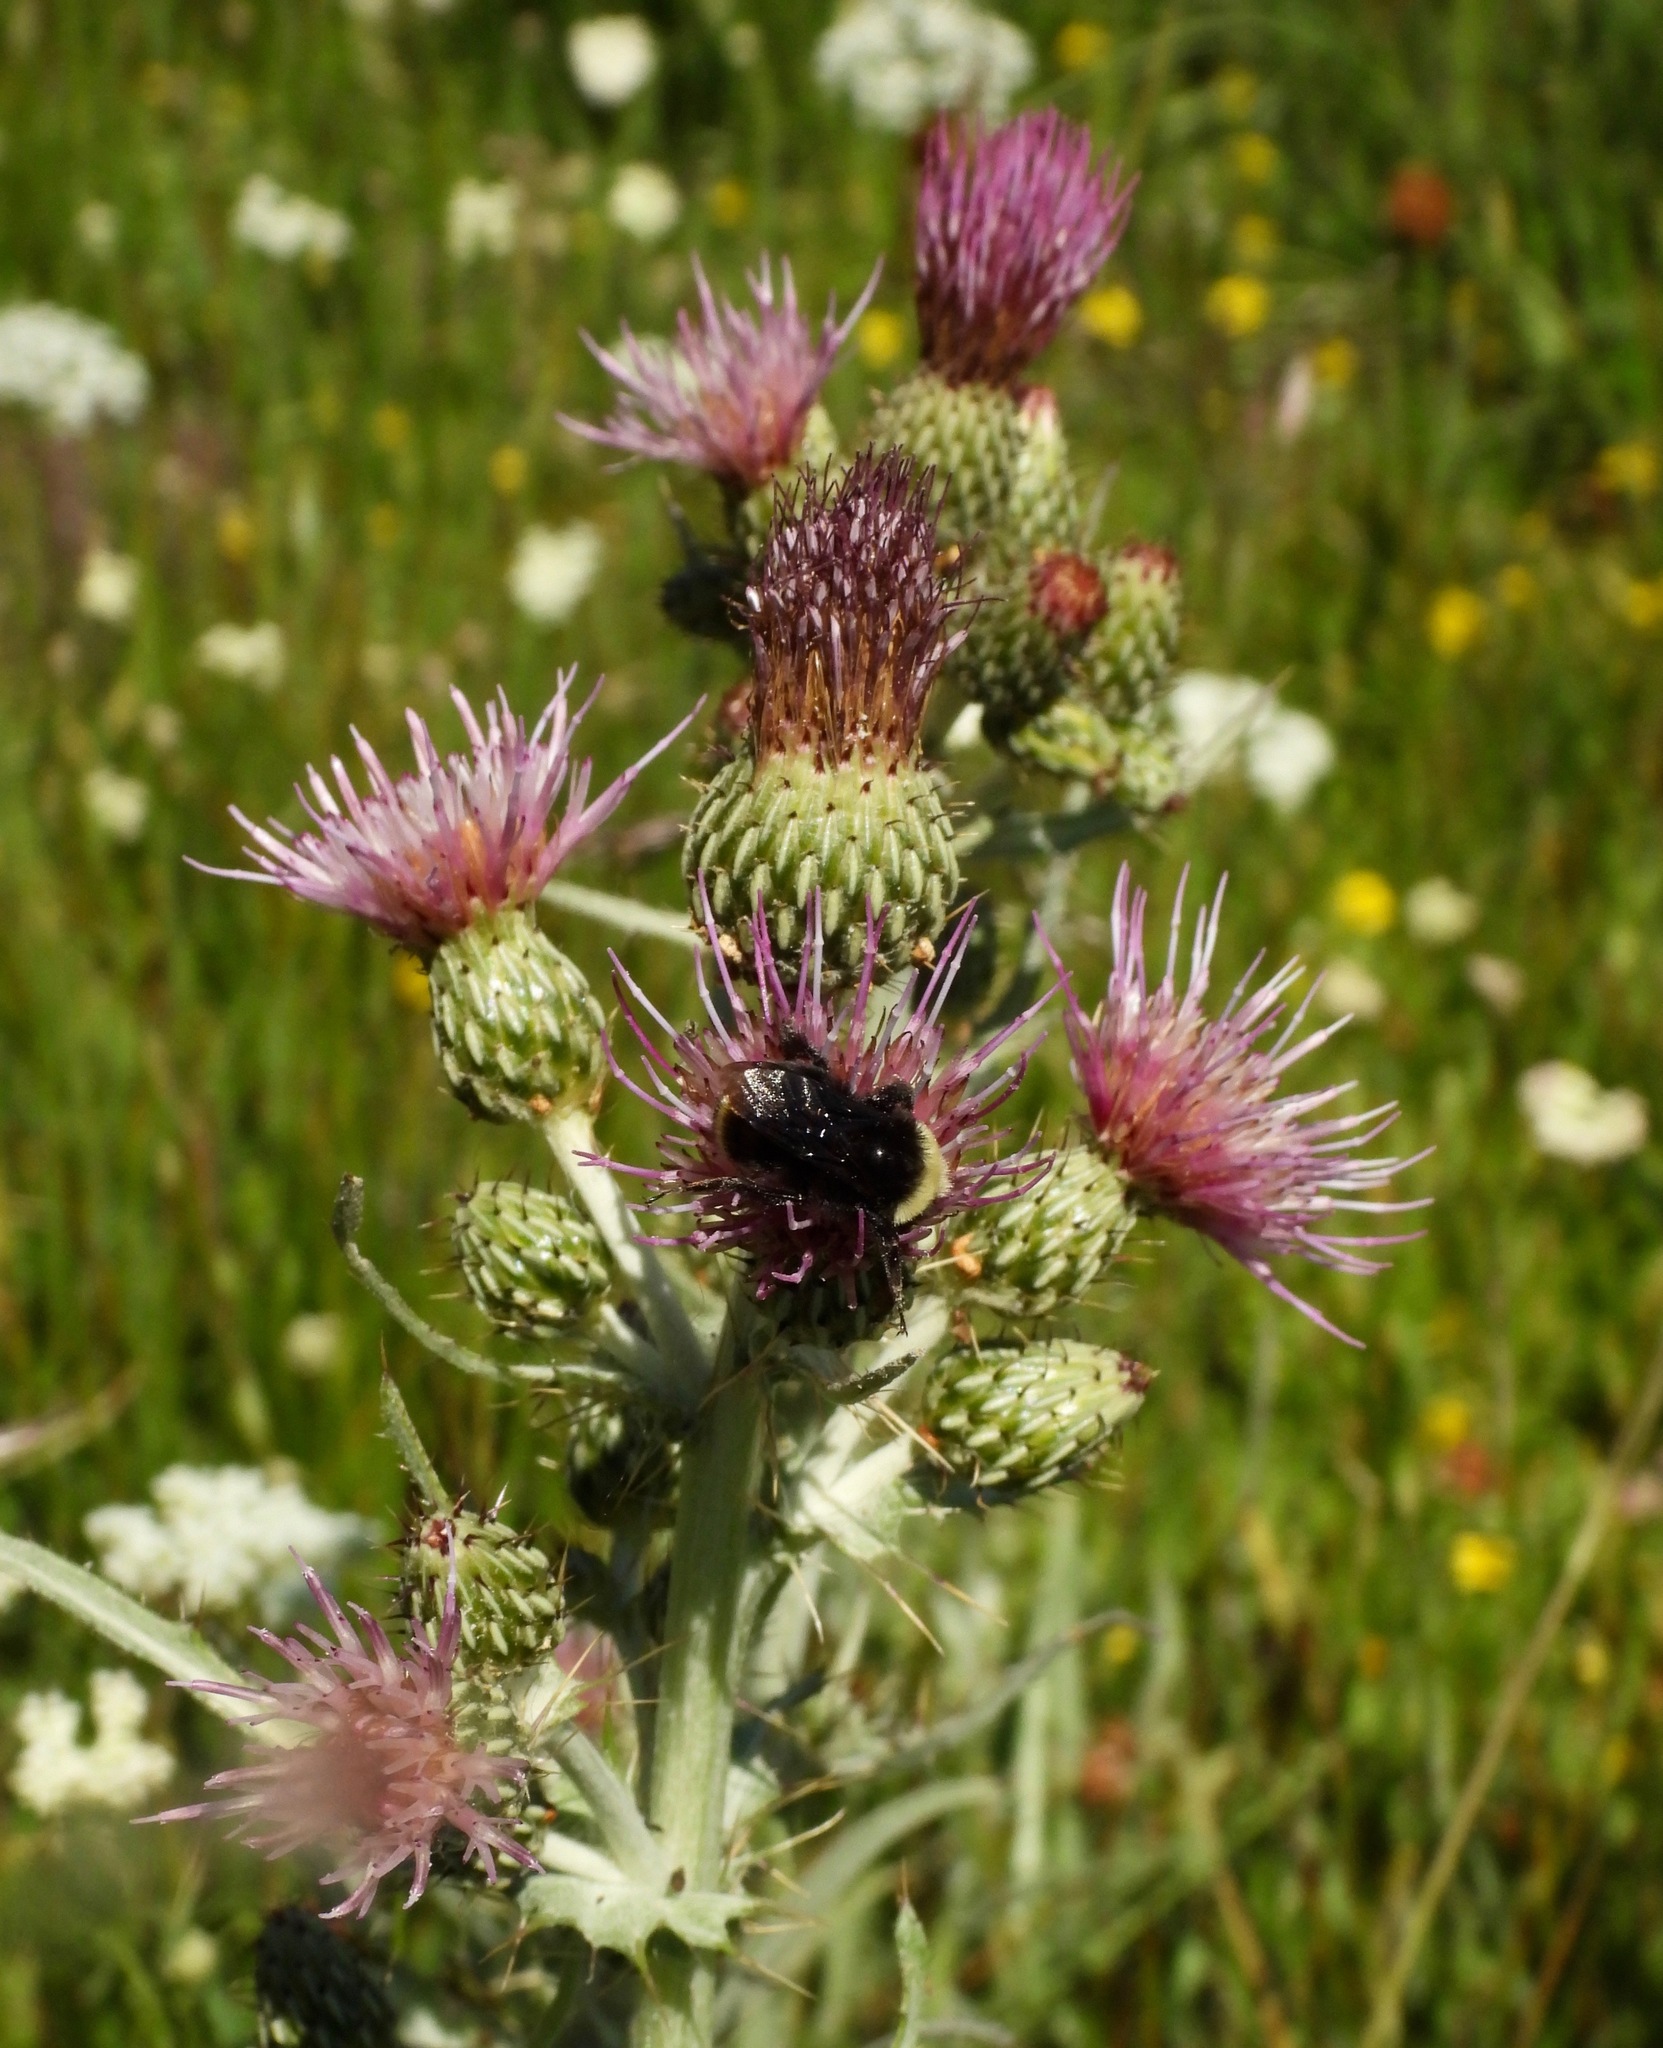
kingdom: Plantae
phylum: Tracheophyta
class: Magnoliopsida
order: Asterales
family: Asteraceae
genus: Cirsium
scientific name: Cirsium douglasii
